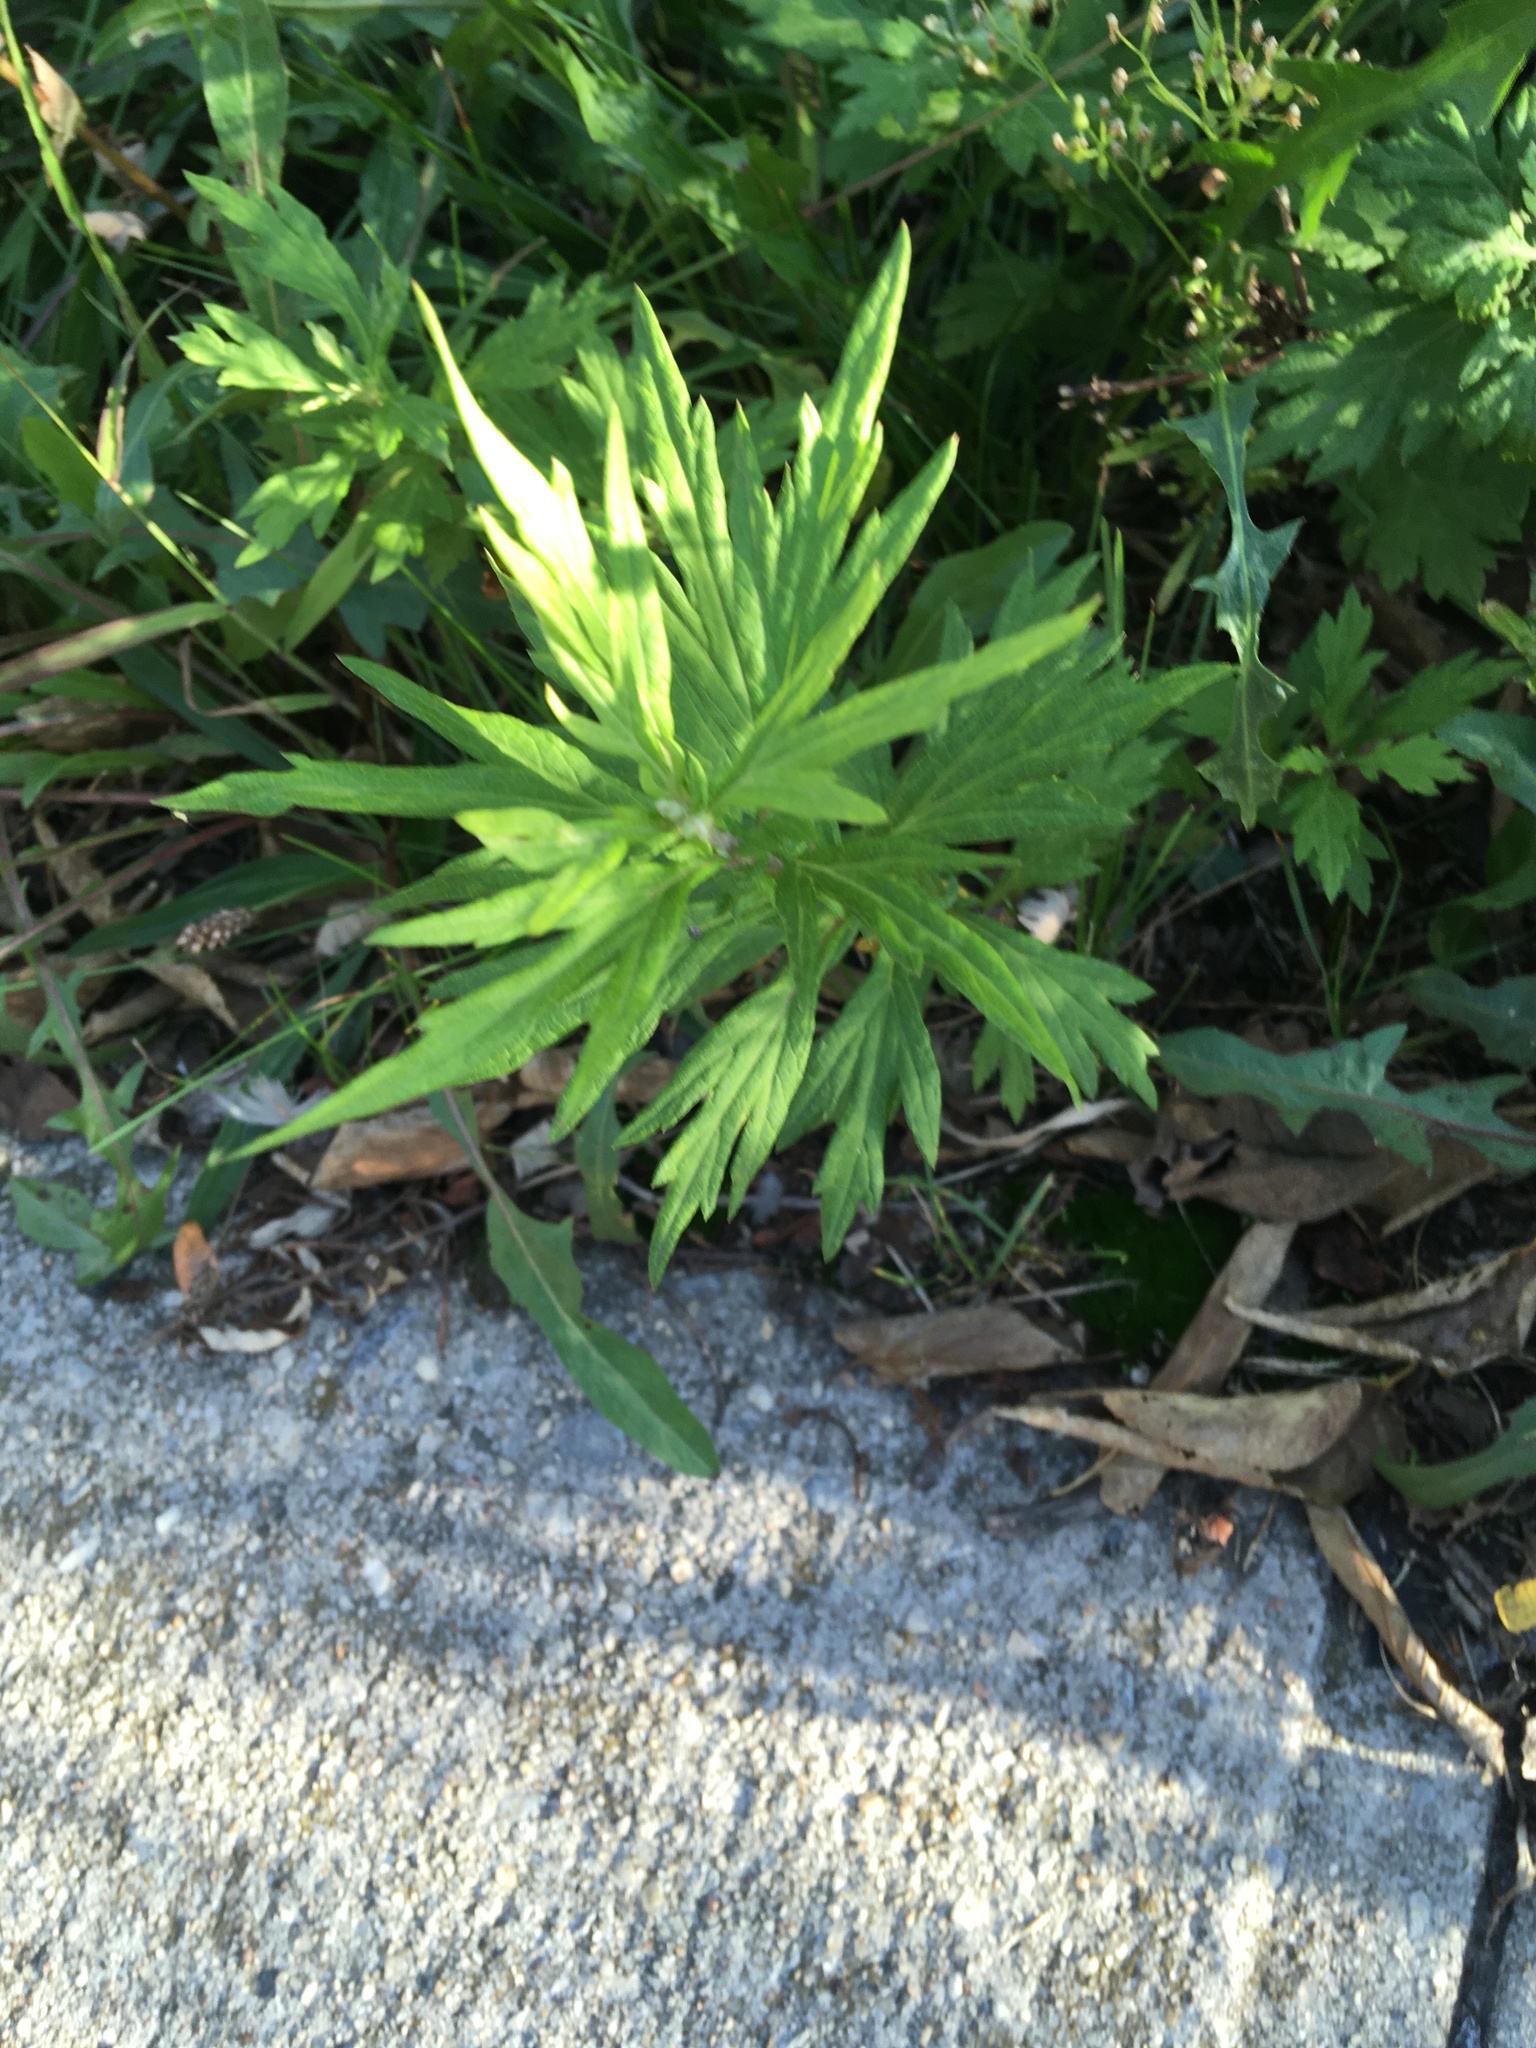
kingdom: Plantae
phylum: Tracheophyta
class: Magnoliopsida
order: Asterales
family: Asteraceae
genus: Artemisia
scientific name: Artemisia vulgaris
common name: Mugwort
